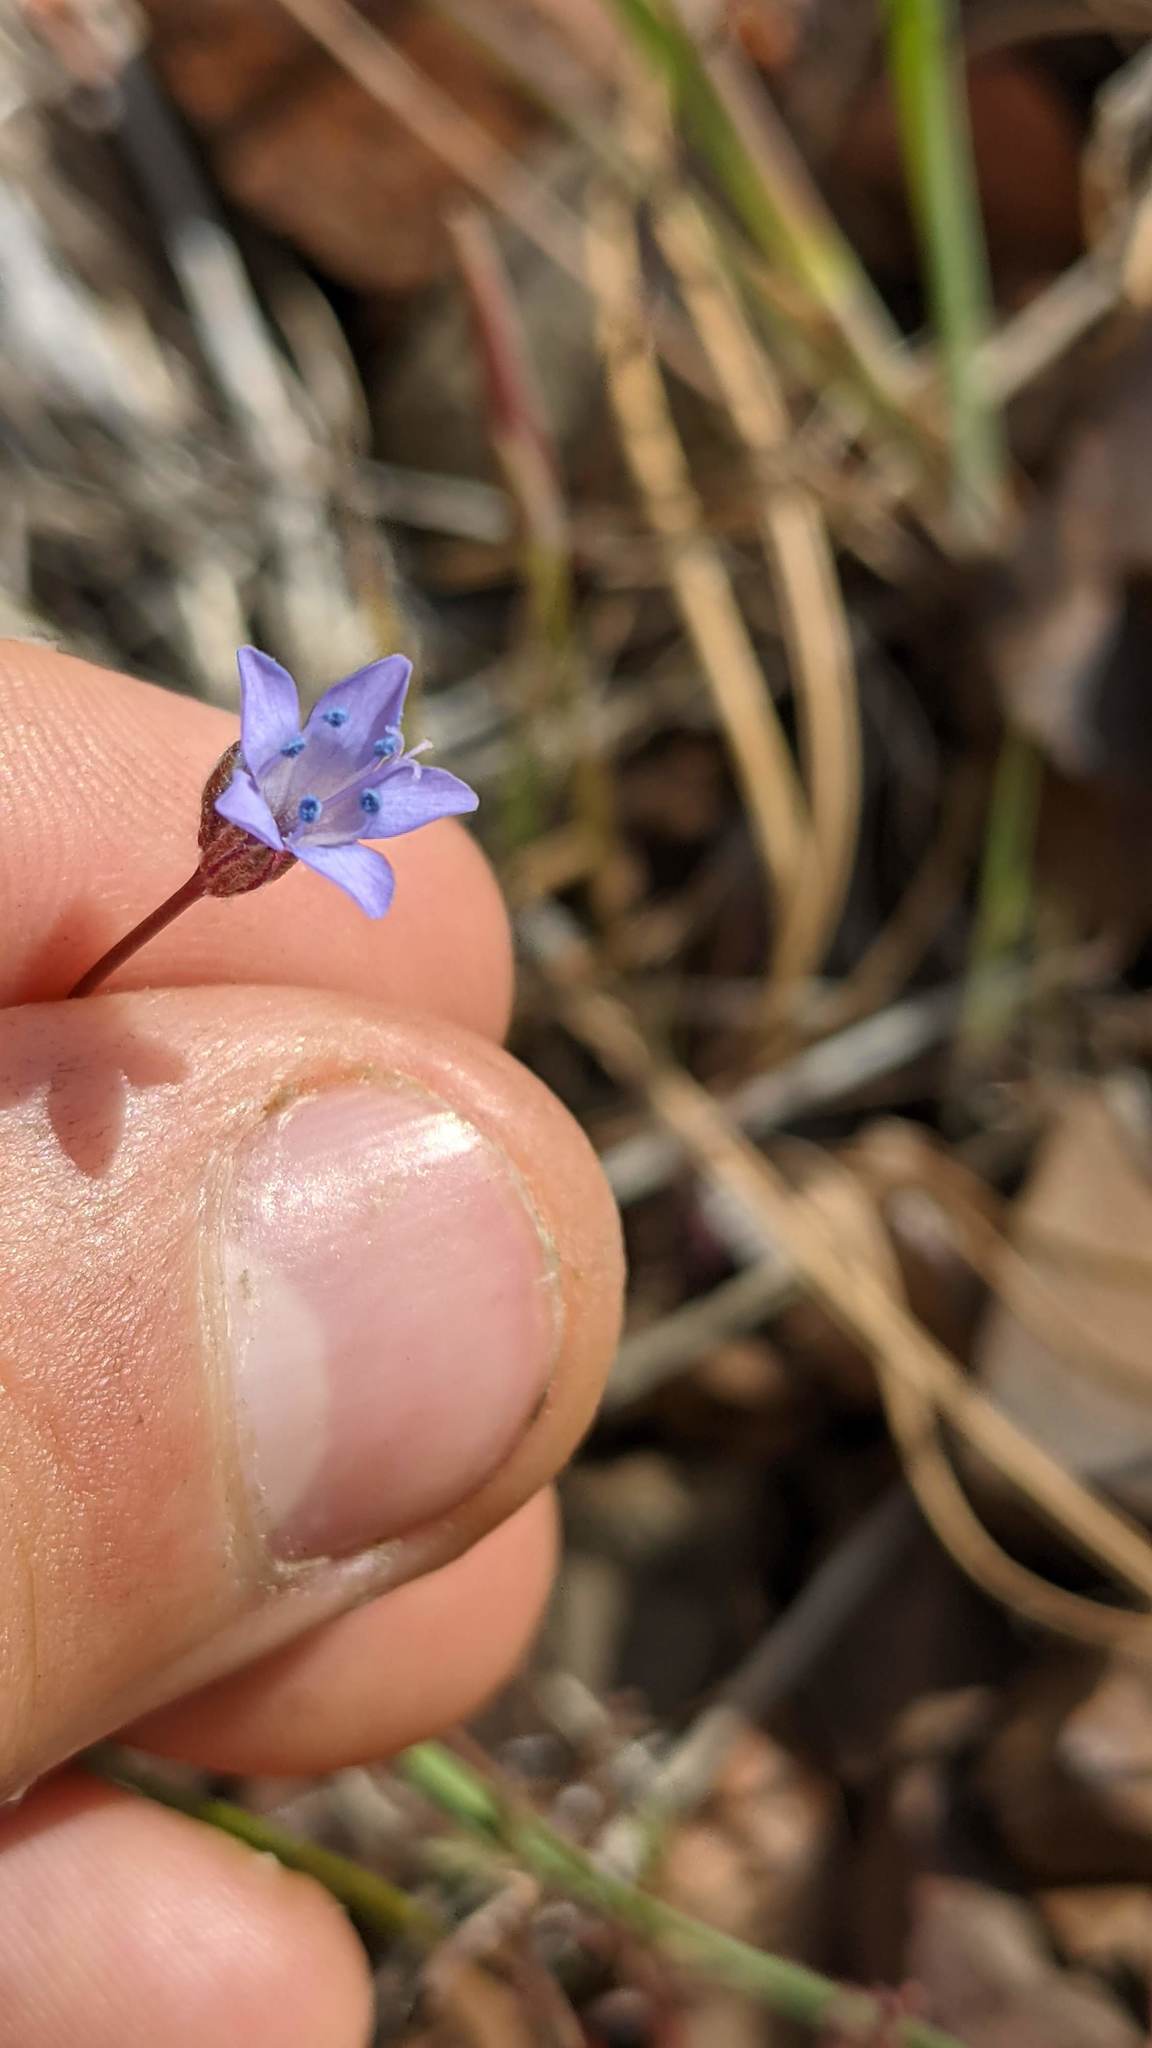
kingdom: Plantae
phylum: Tracheophyta
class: Magnoliopsida
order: Ericales
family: Polemoniaceae
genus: Gilia
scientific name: Gilia achilleifolia
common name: California gily-flower
